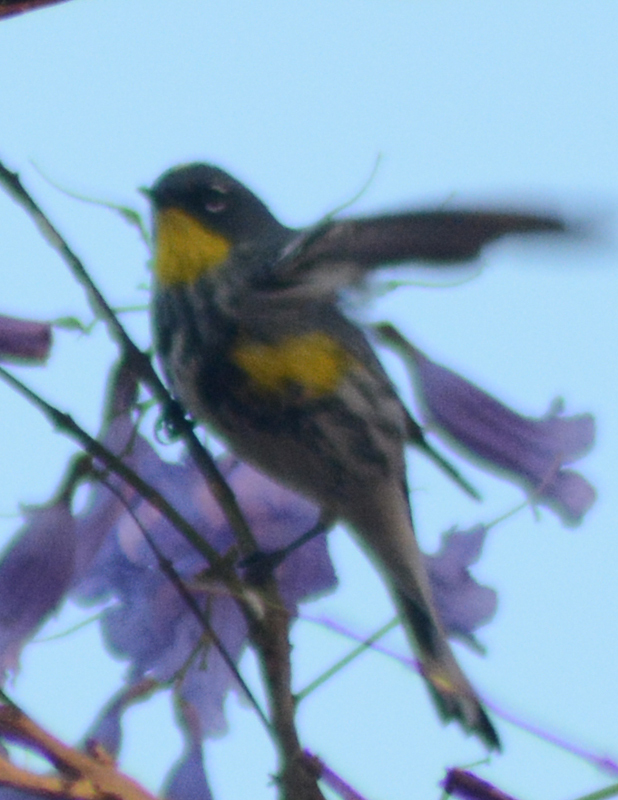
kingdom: Animalia
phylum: Chordata
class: Aves
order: Passeriformes
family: Parulidae
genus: Setophaga
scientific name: Setophaga coronata
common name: Myrtle warbler
